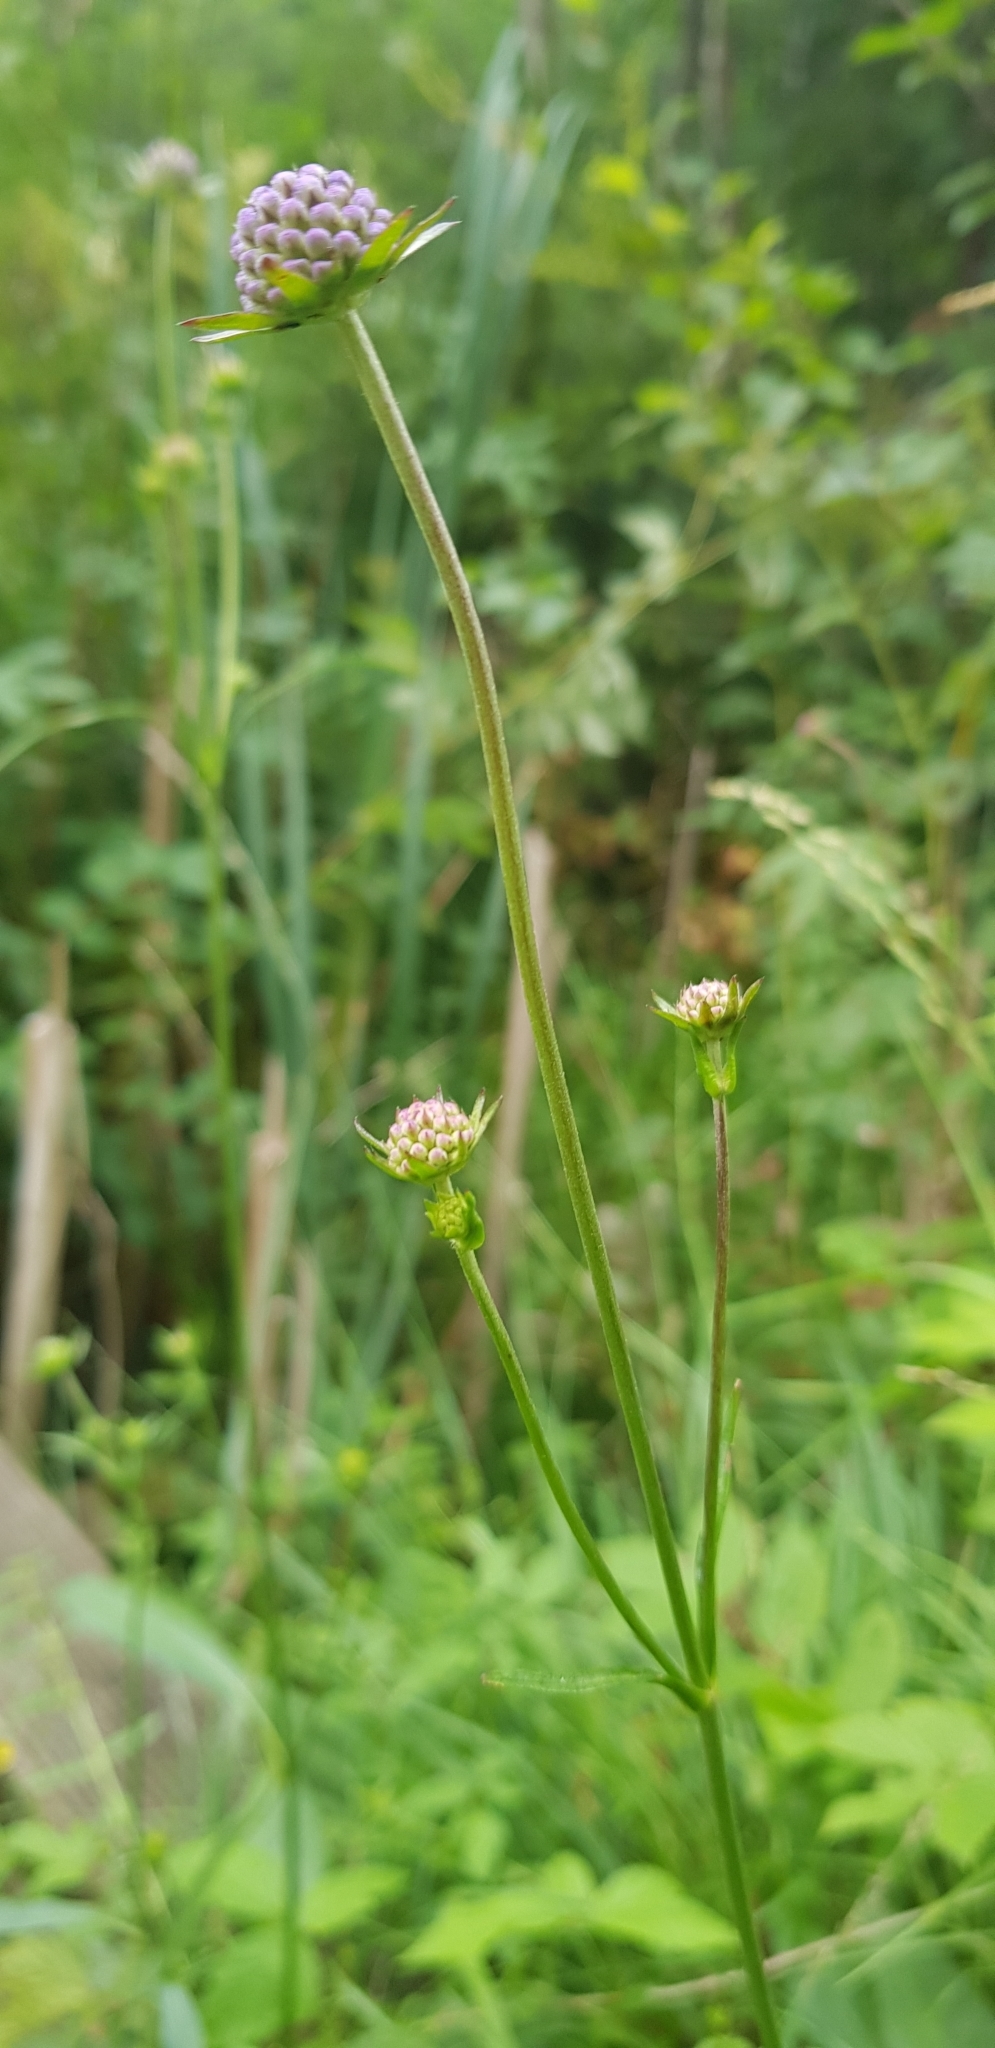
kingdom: Plantae
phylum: Tracheophyta
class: Magnoliopsida
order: Dipsacales
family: Caprifoliaceae
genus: Succisa
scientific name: Succisa pratensis
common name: Devil's-bit
